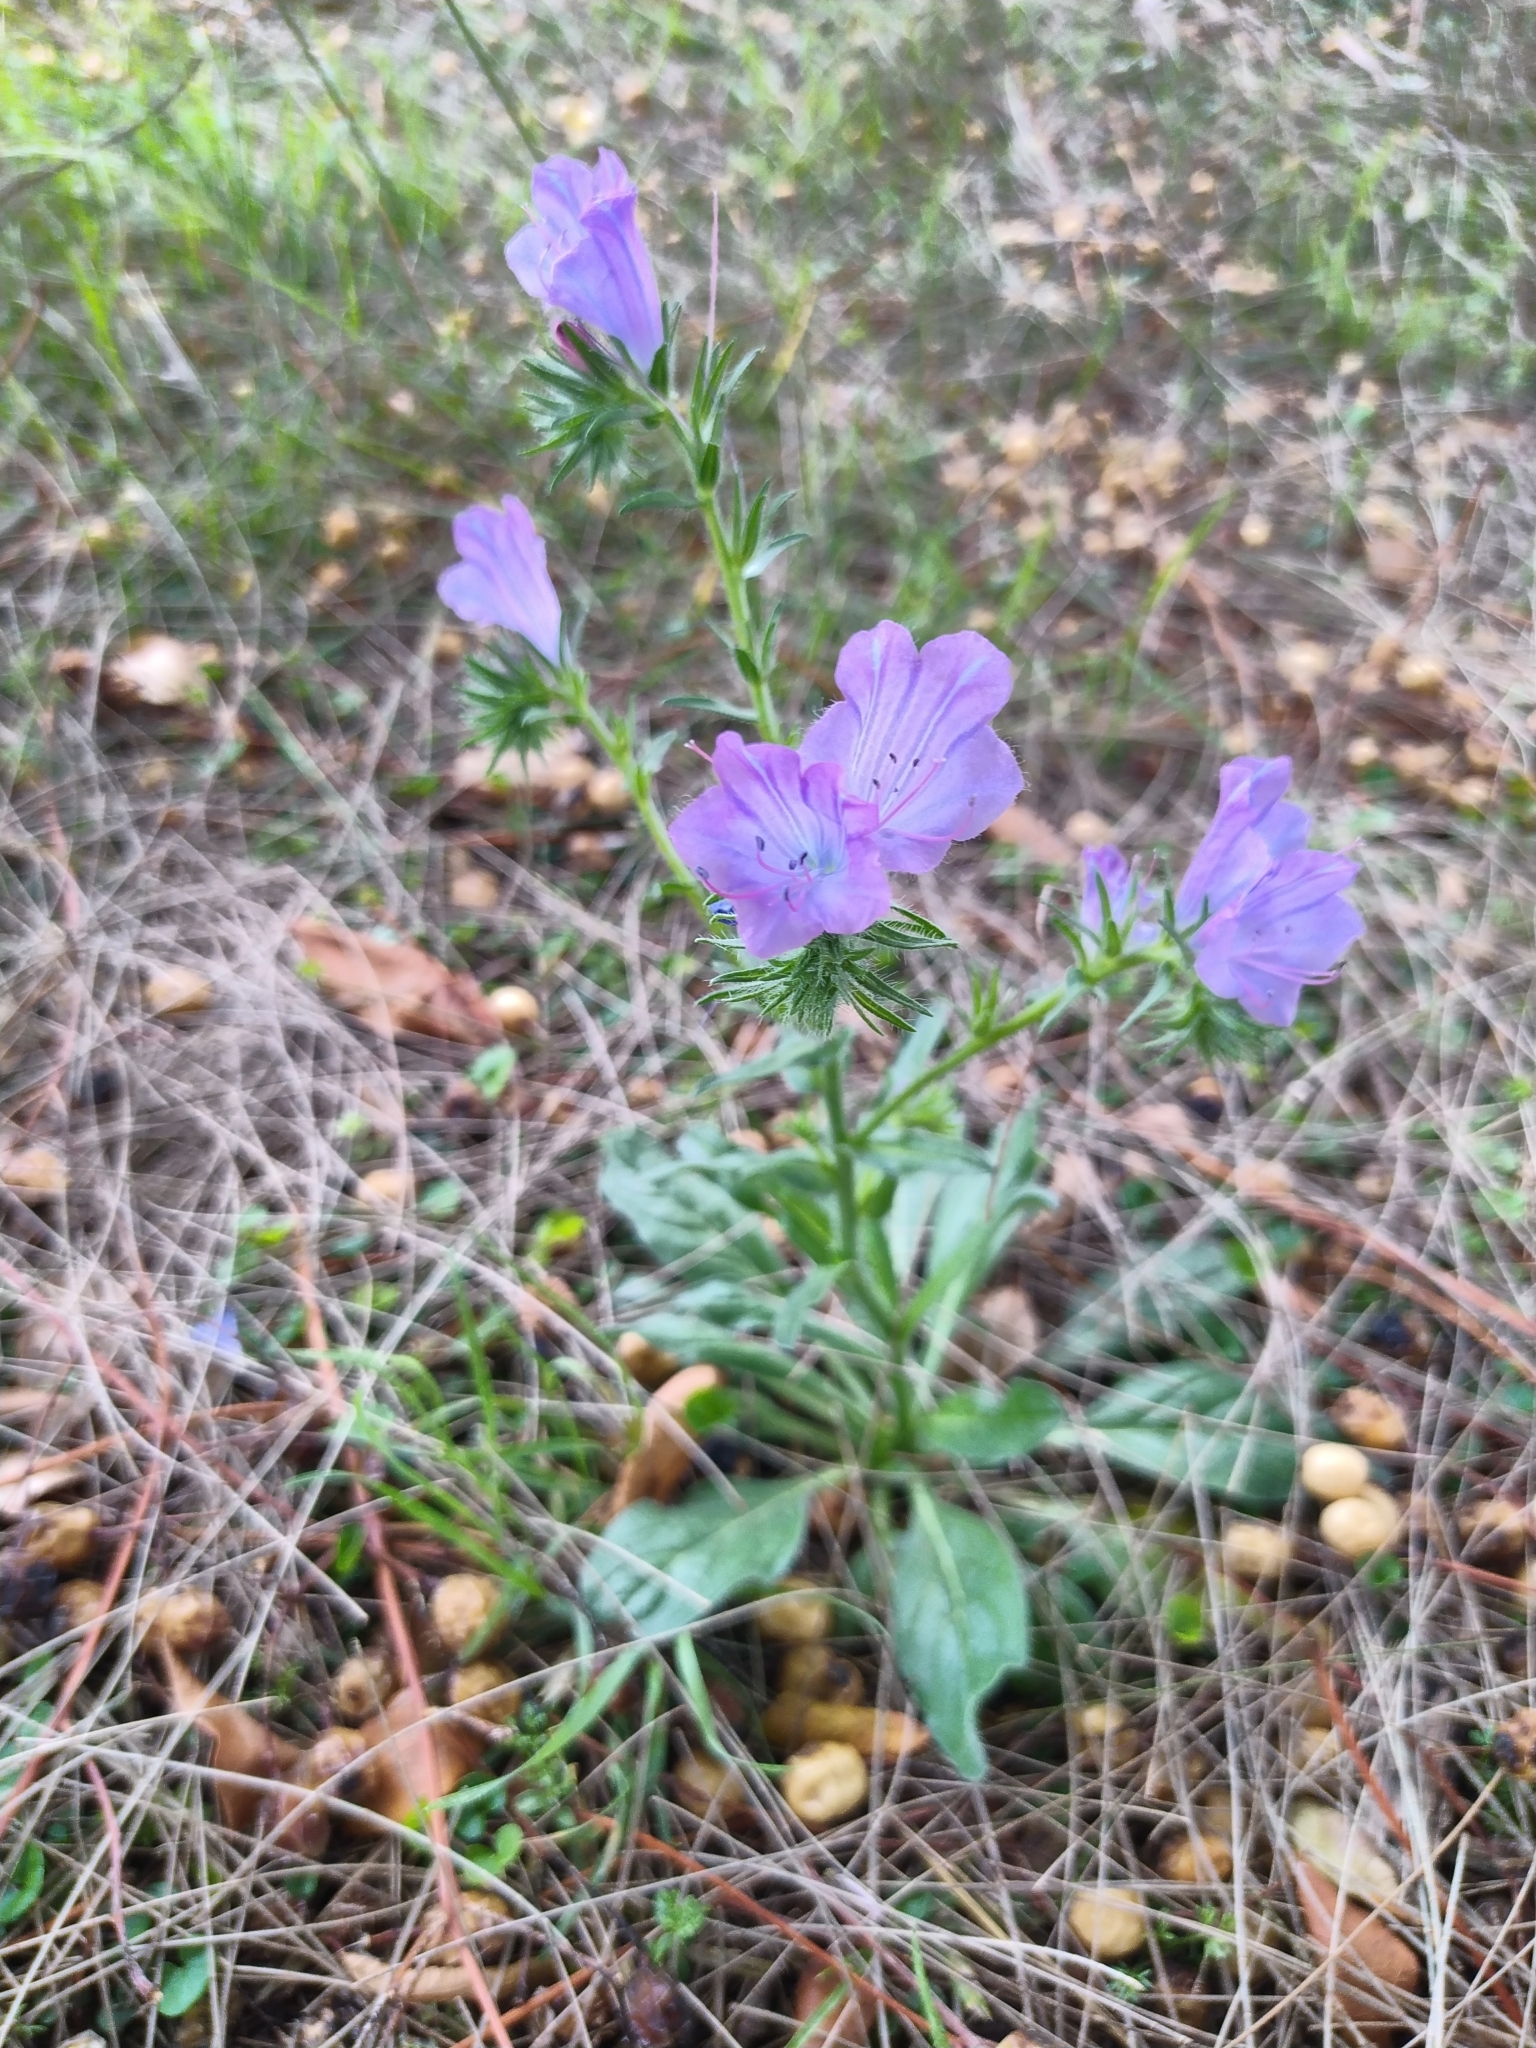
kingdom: Plantae
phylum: Tracheophyta
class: Magnoliopsida
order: Boraginales
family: Boraginaceae
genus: Echium
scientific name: Echium plantagineum
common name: Purple viper's-bugloss
